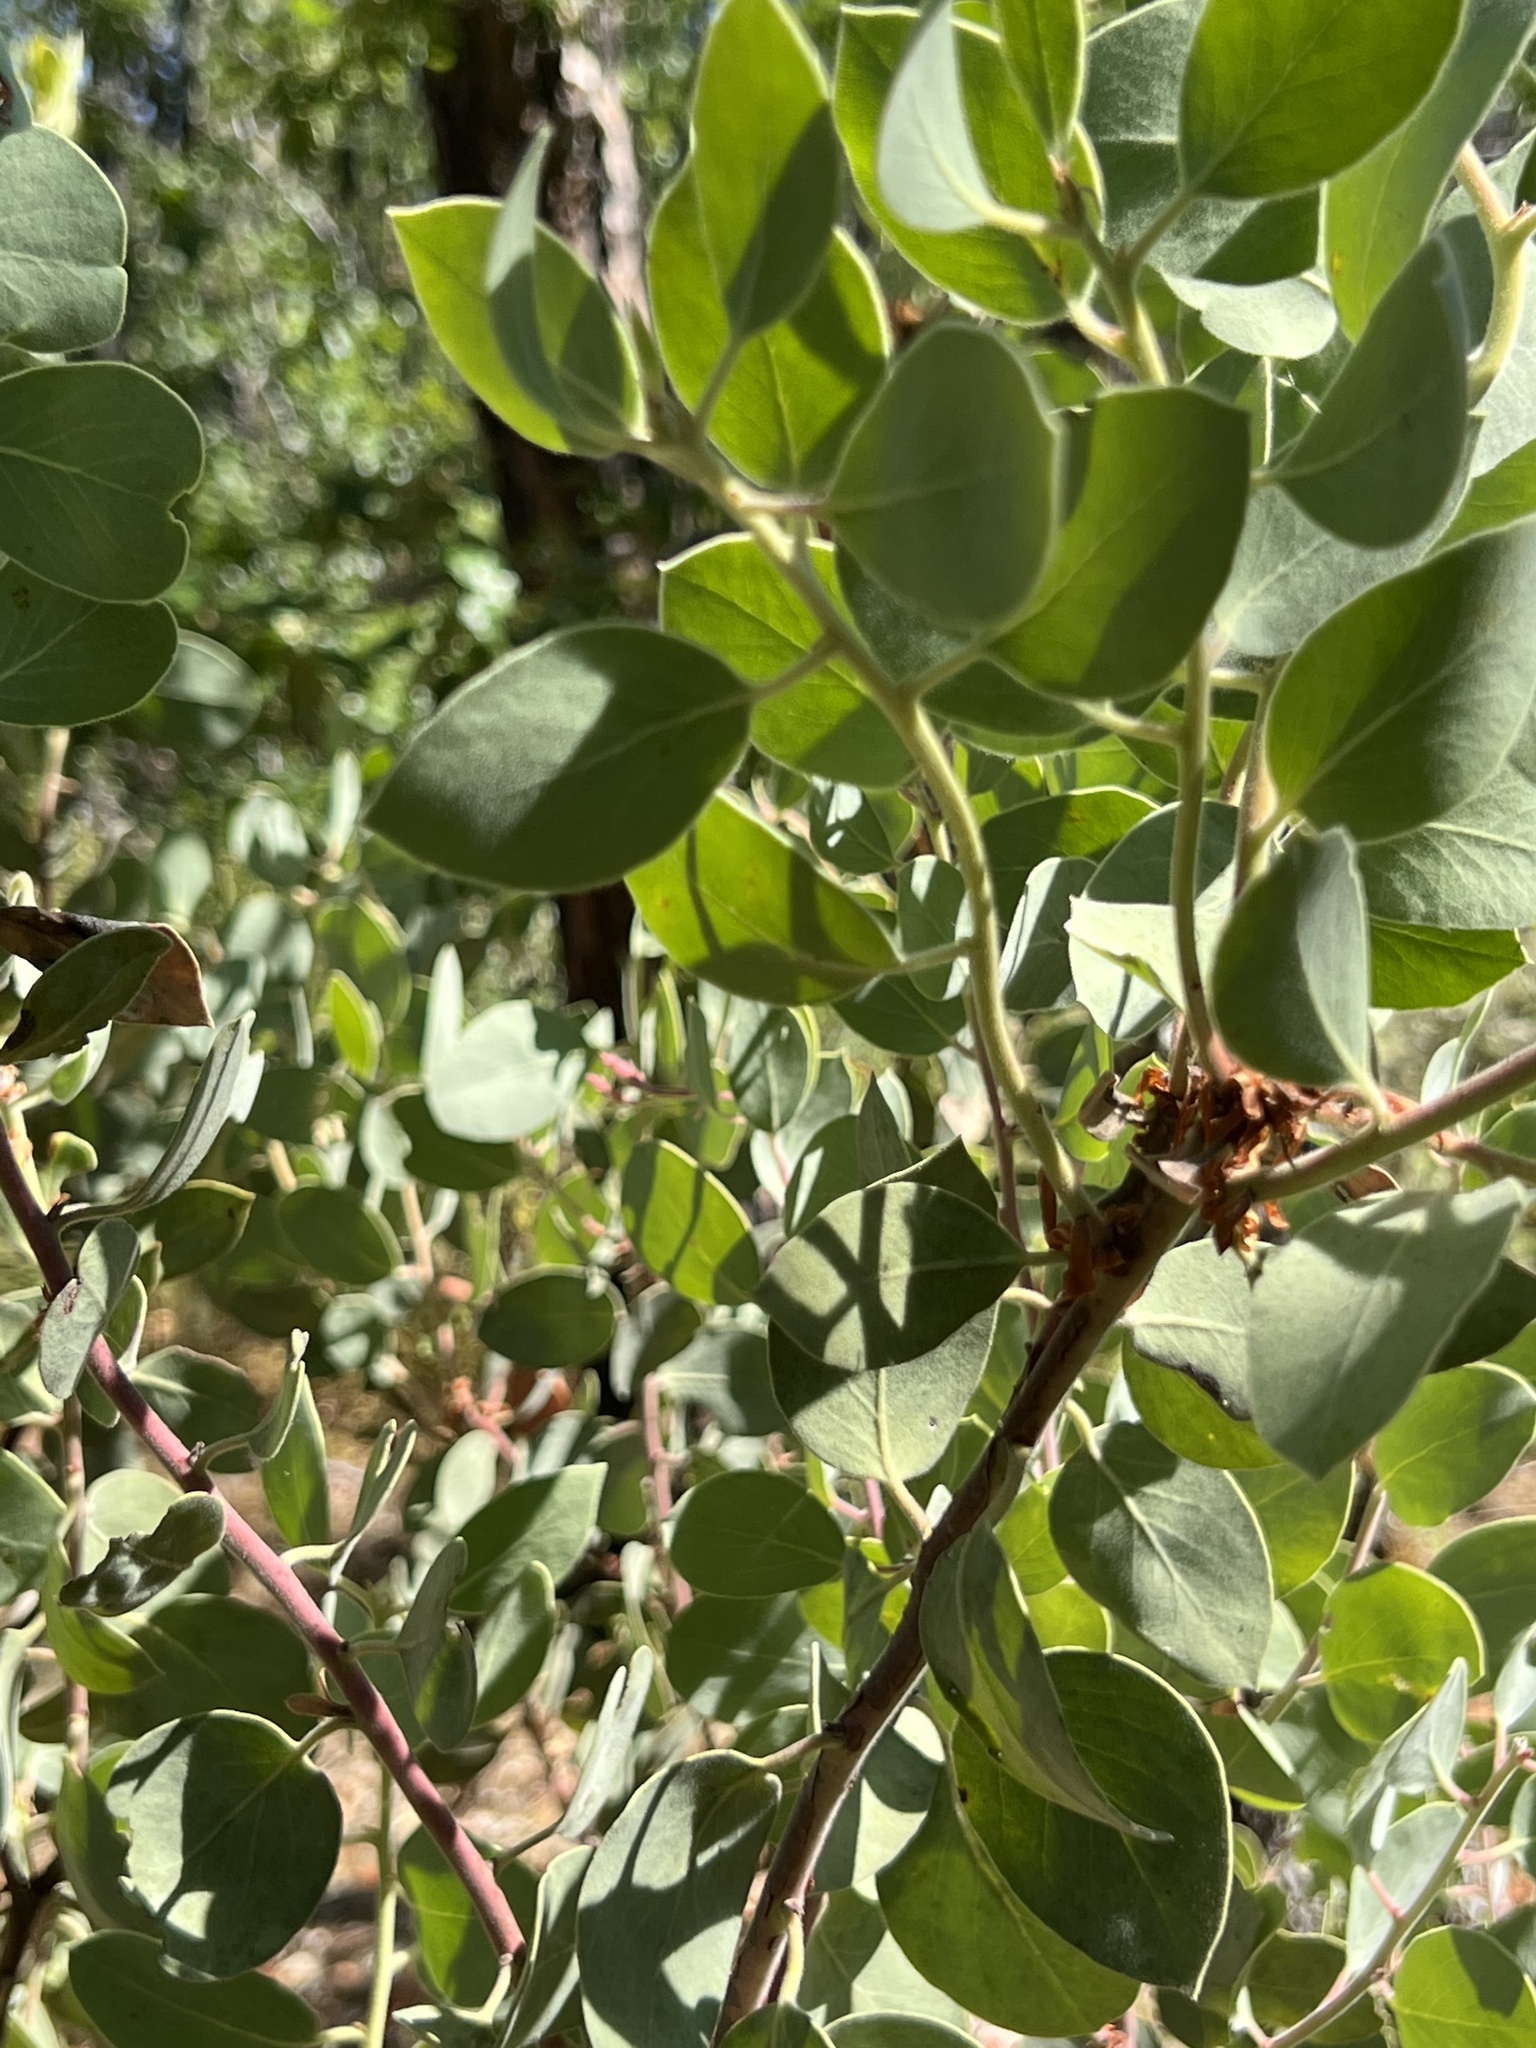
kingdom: Plantae
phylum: Tracheophyta
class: Magnoliopsida
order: Ericales
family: Ericaceae
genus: Arctostaphylos
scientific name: Arctostaphylos viscida
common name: White-leaf manzanita
